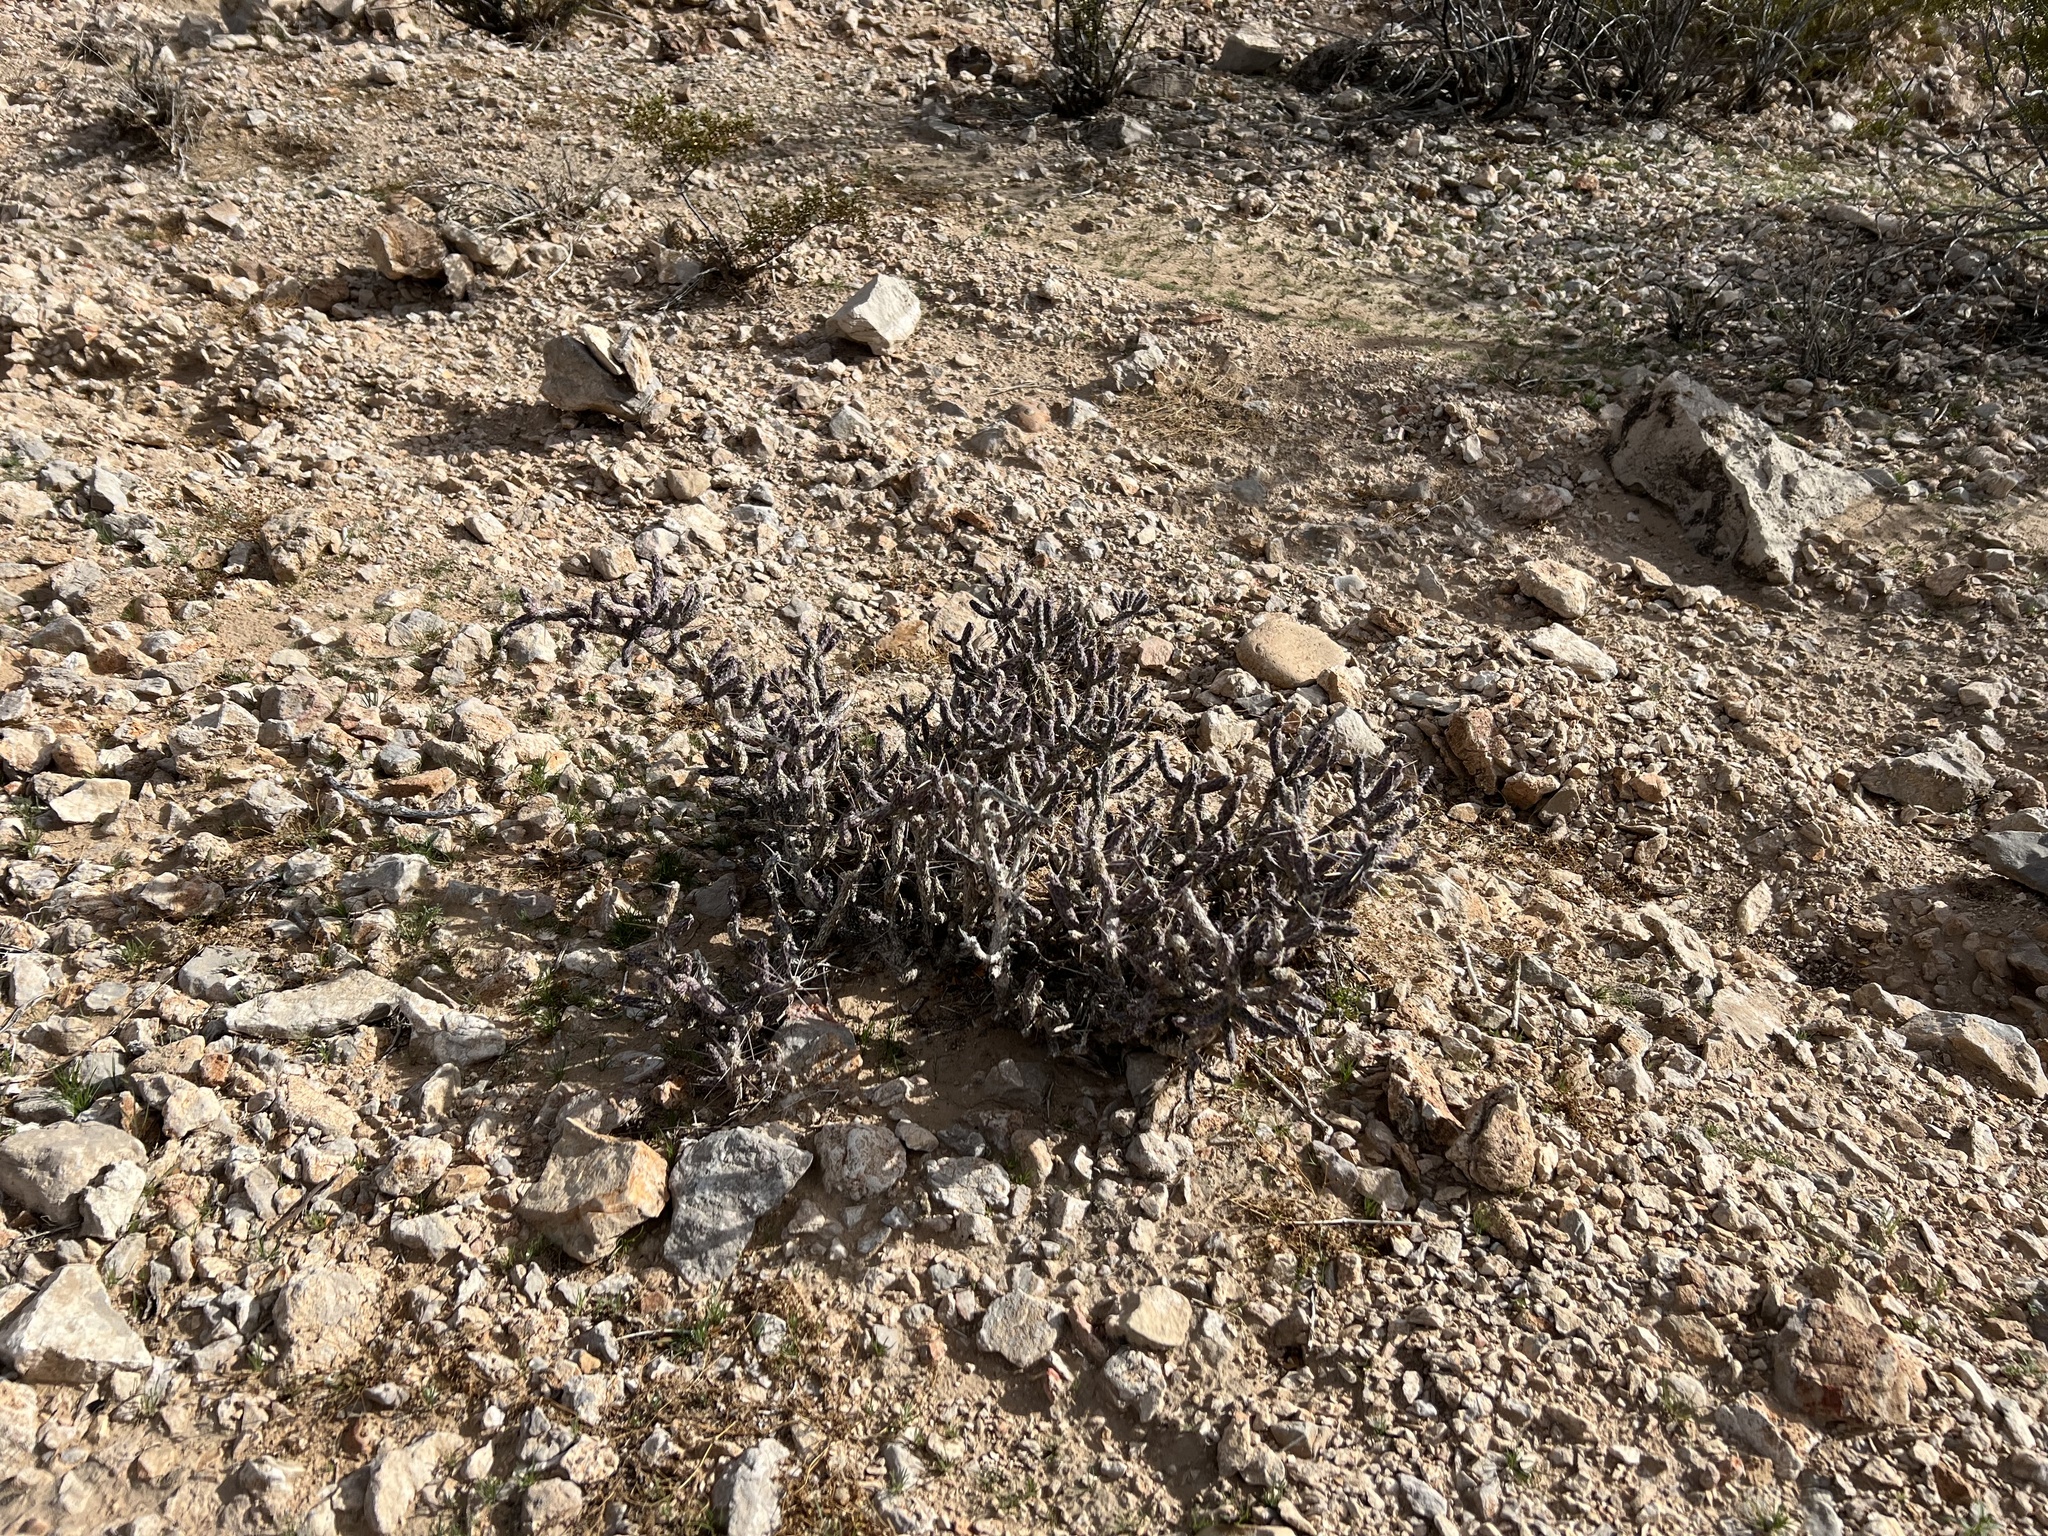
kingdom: Plantae
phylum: Tracheophyta
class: Magnoliopsida
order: Caryophyllales
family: Cactaceae
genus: Cylindropuntia
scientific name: Cylindropuntia ramosissima
